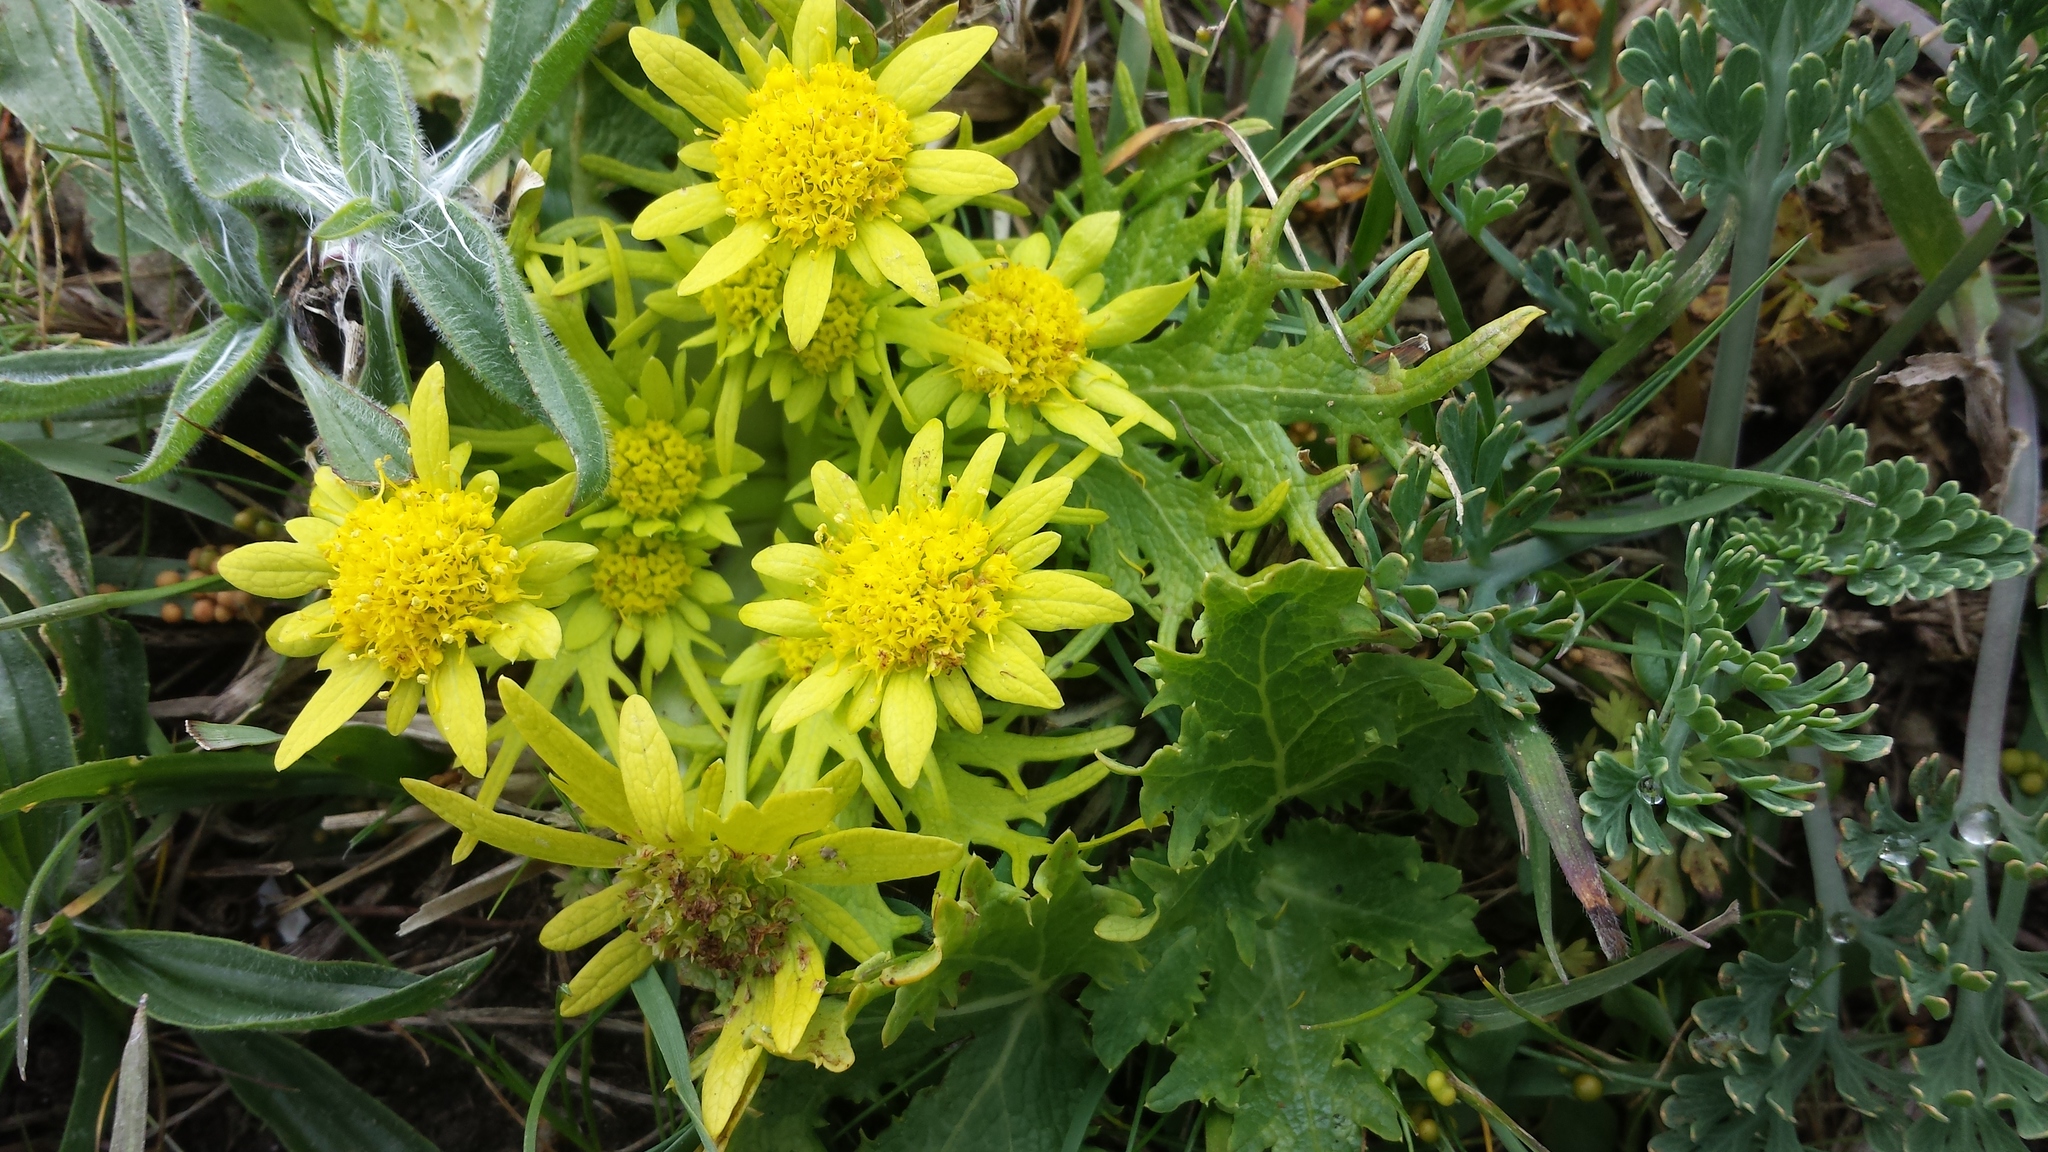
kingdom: Plantae
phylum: Tracheophyta
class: Magnoliopsida
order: Apiales
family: Apiaceae
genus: Sanicula
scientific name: Sanicula arctopoides
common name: Footsteps-of-spring
